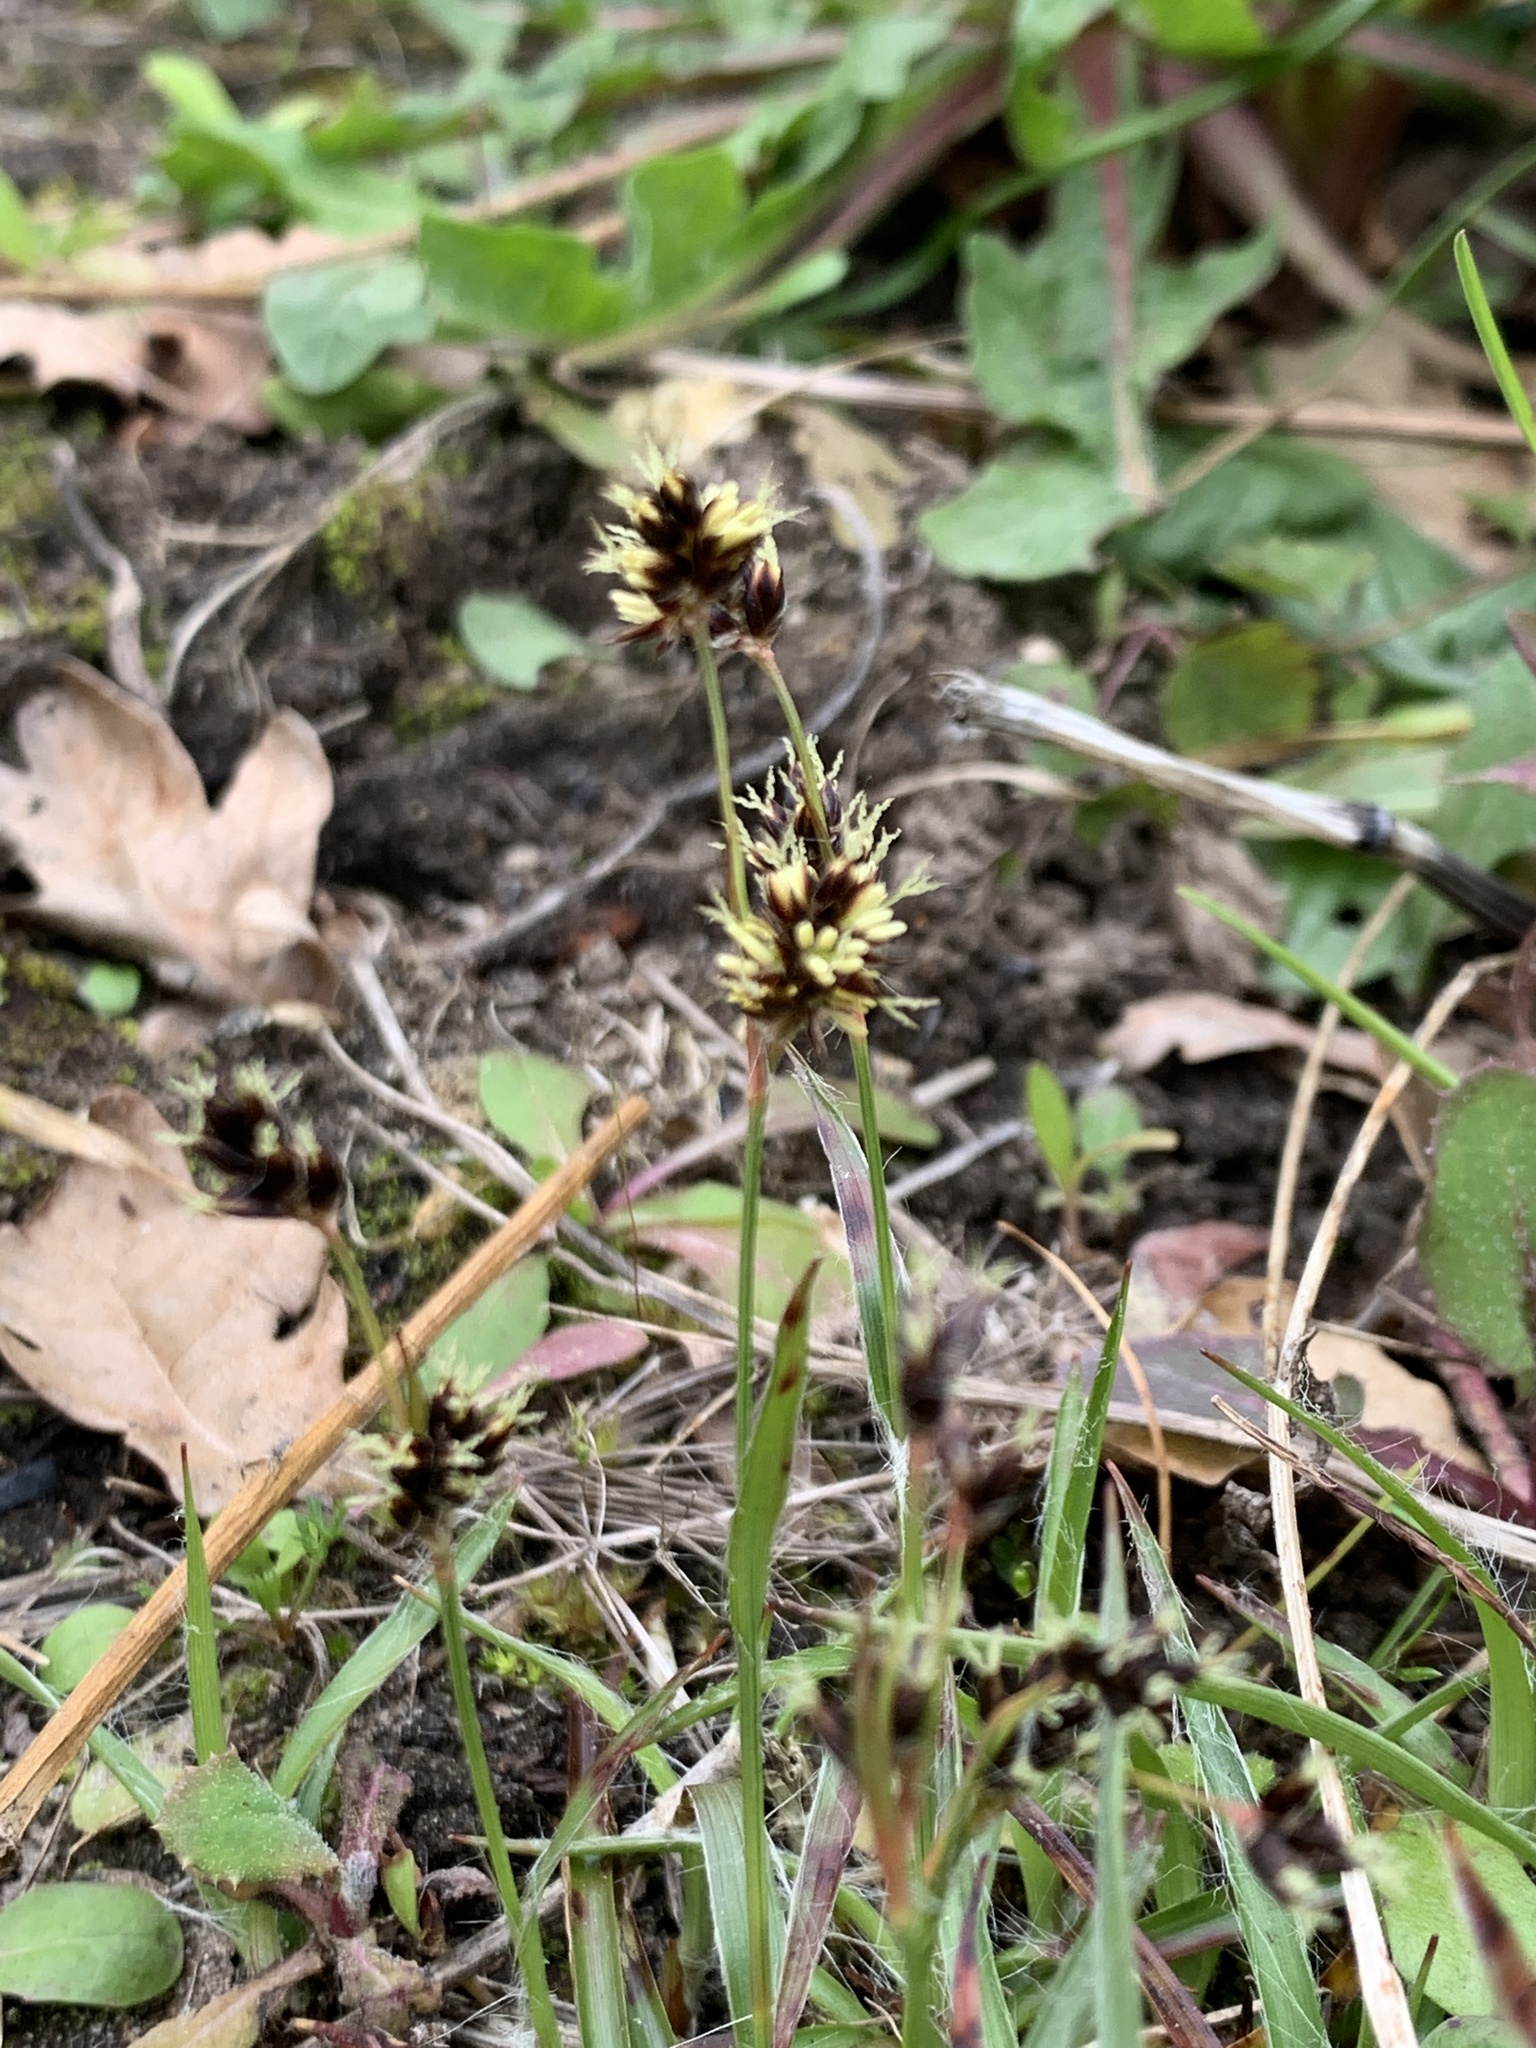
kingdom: Plantae
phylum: Tracheophyta
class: Liliopsida
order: Poales
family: Juncaceae
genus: Luzula
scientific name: Luzula campestris
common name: Field wood-rush
